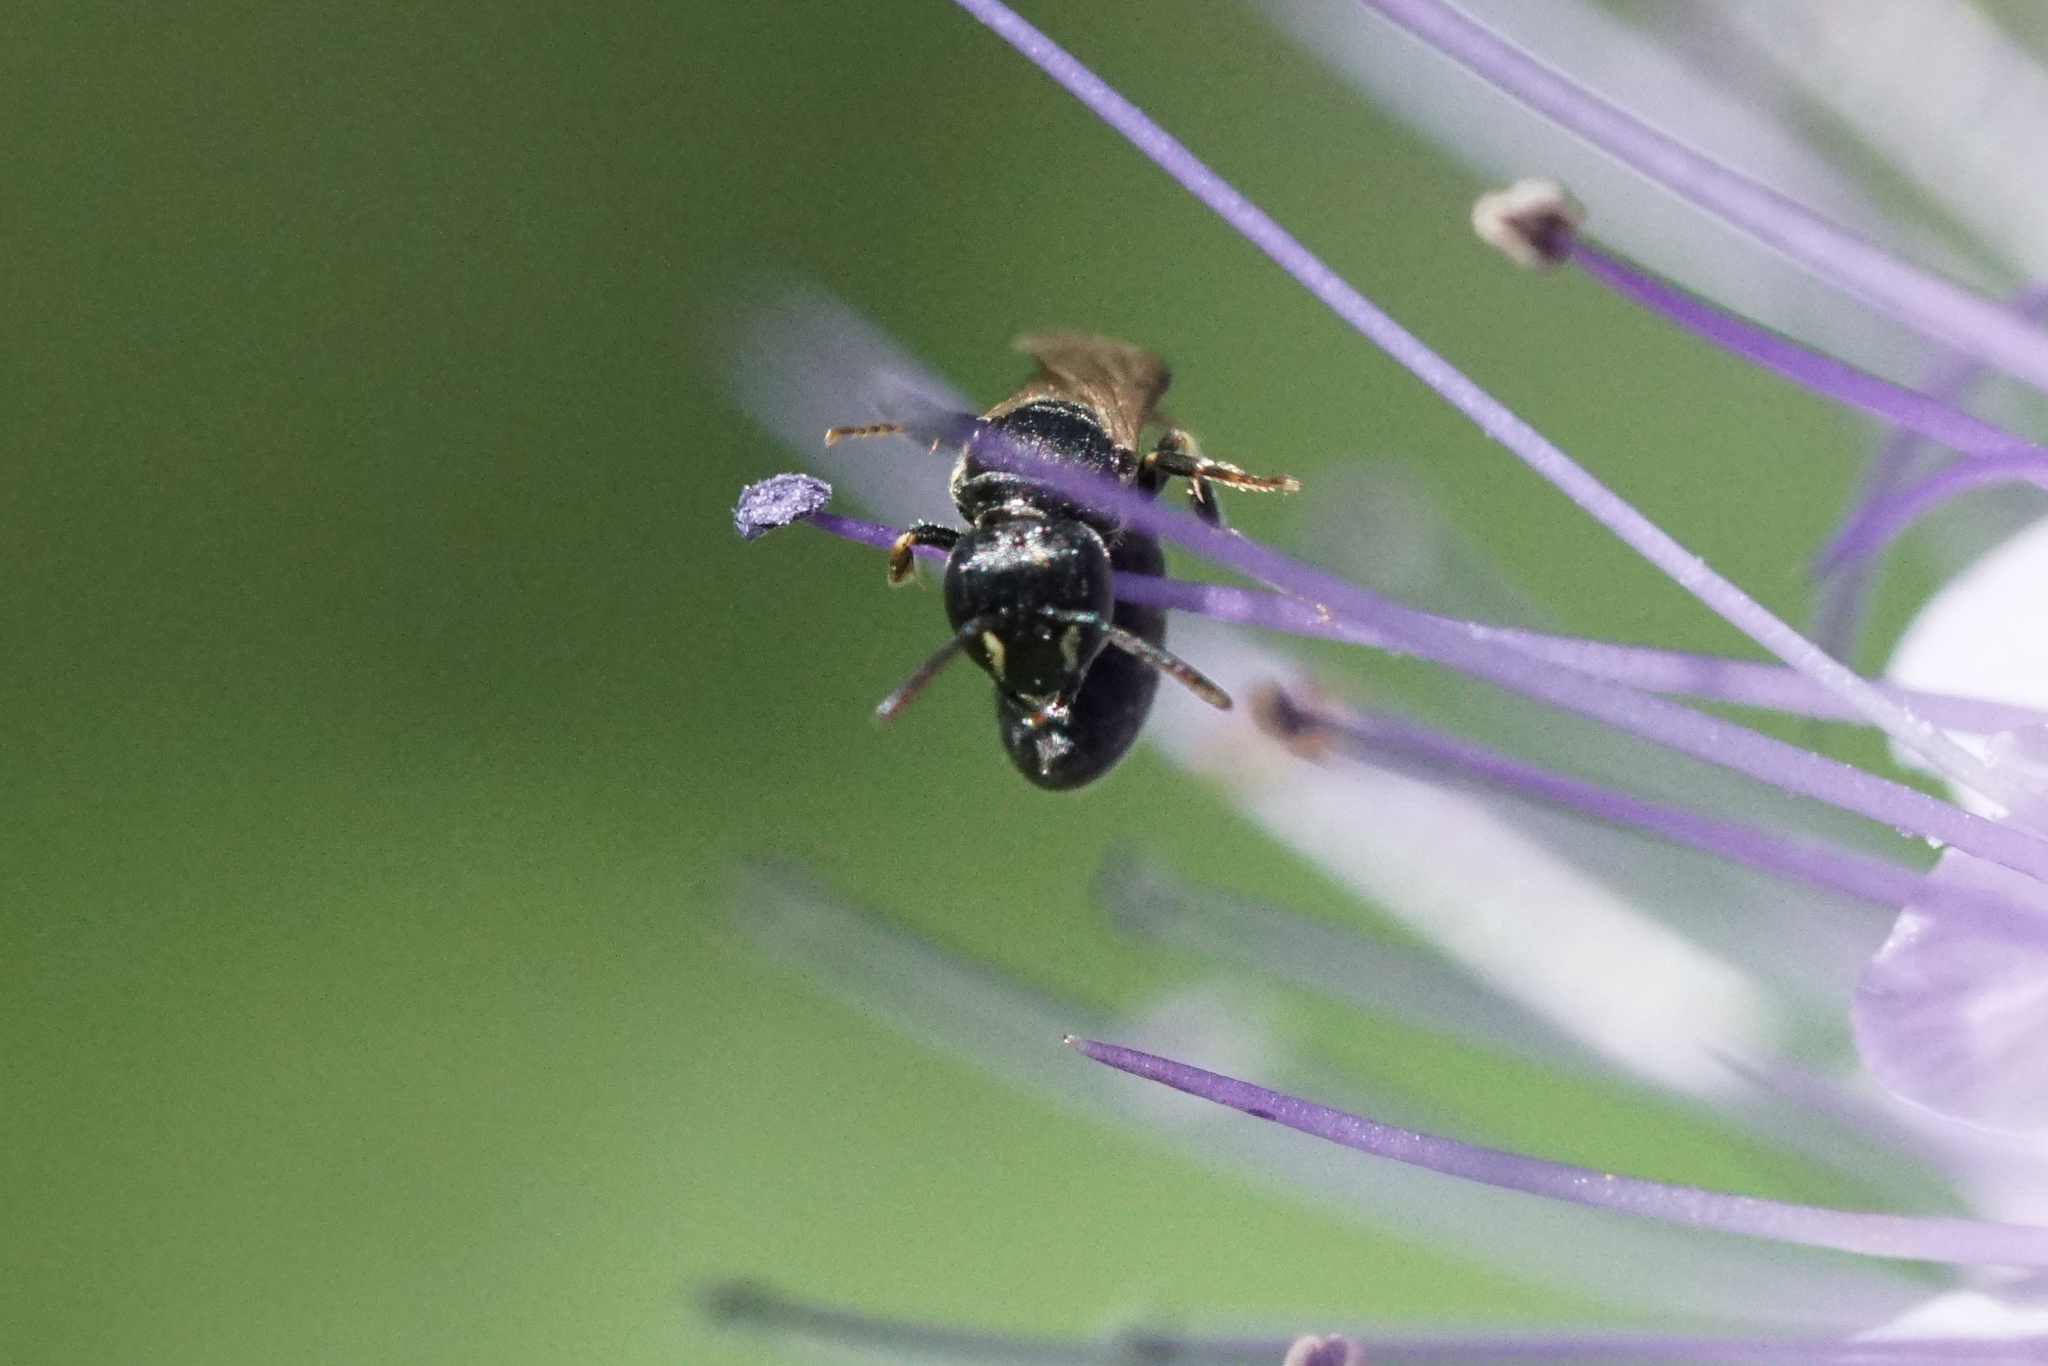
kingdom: Animalia
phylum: Arthropoda
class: Insecta
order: Hymenoptera
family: Colletidae
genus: Hylaeus
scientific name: Hylaeus mesillae
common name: Mesilla masked bee
